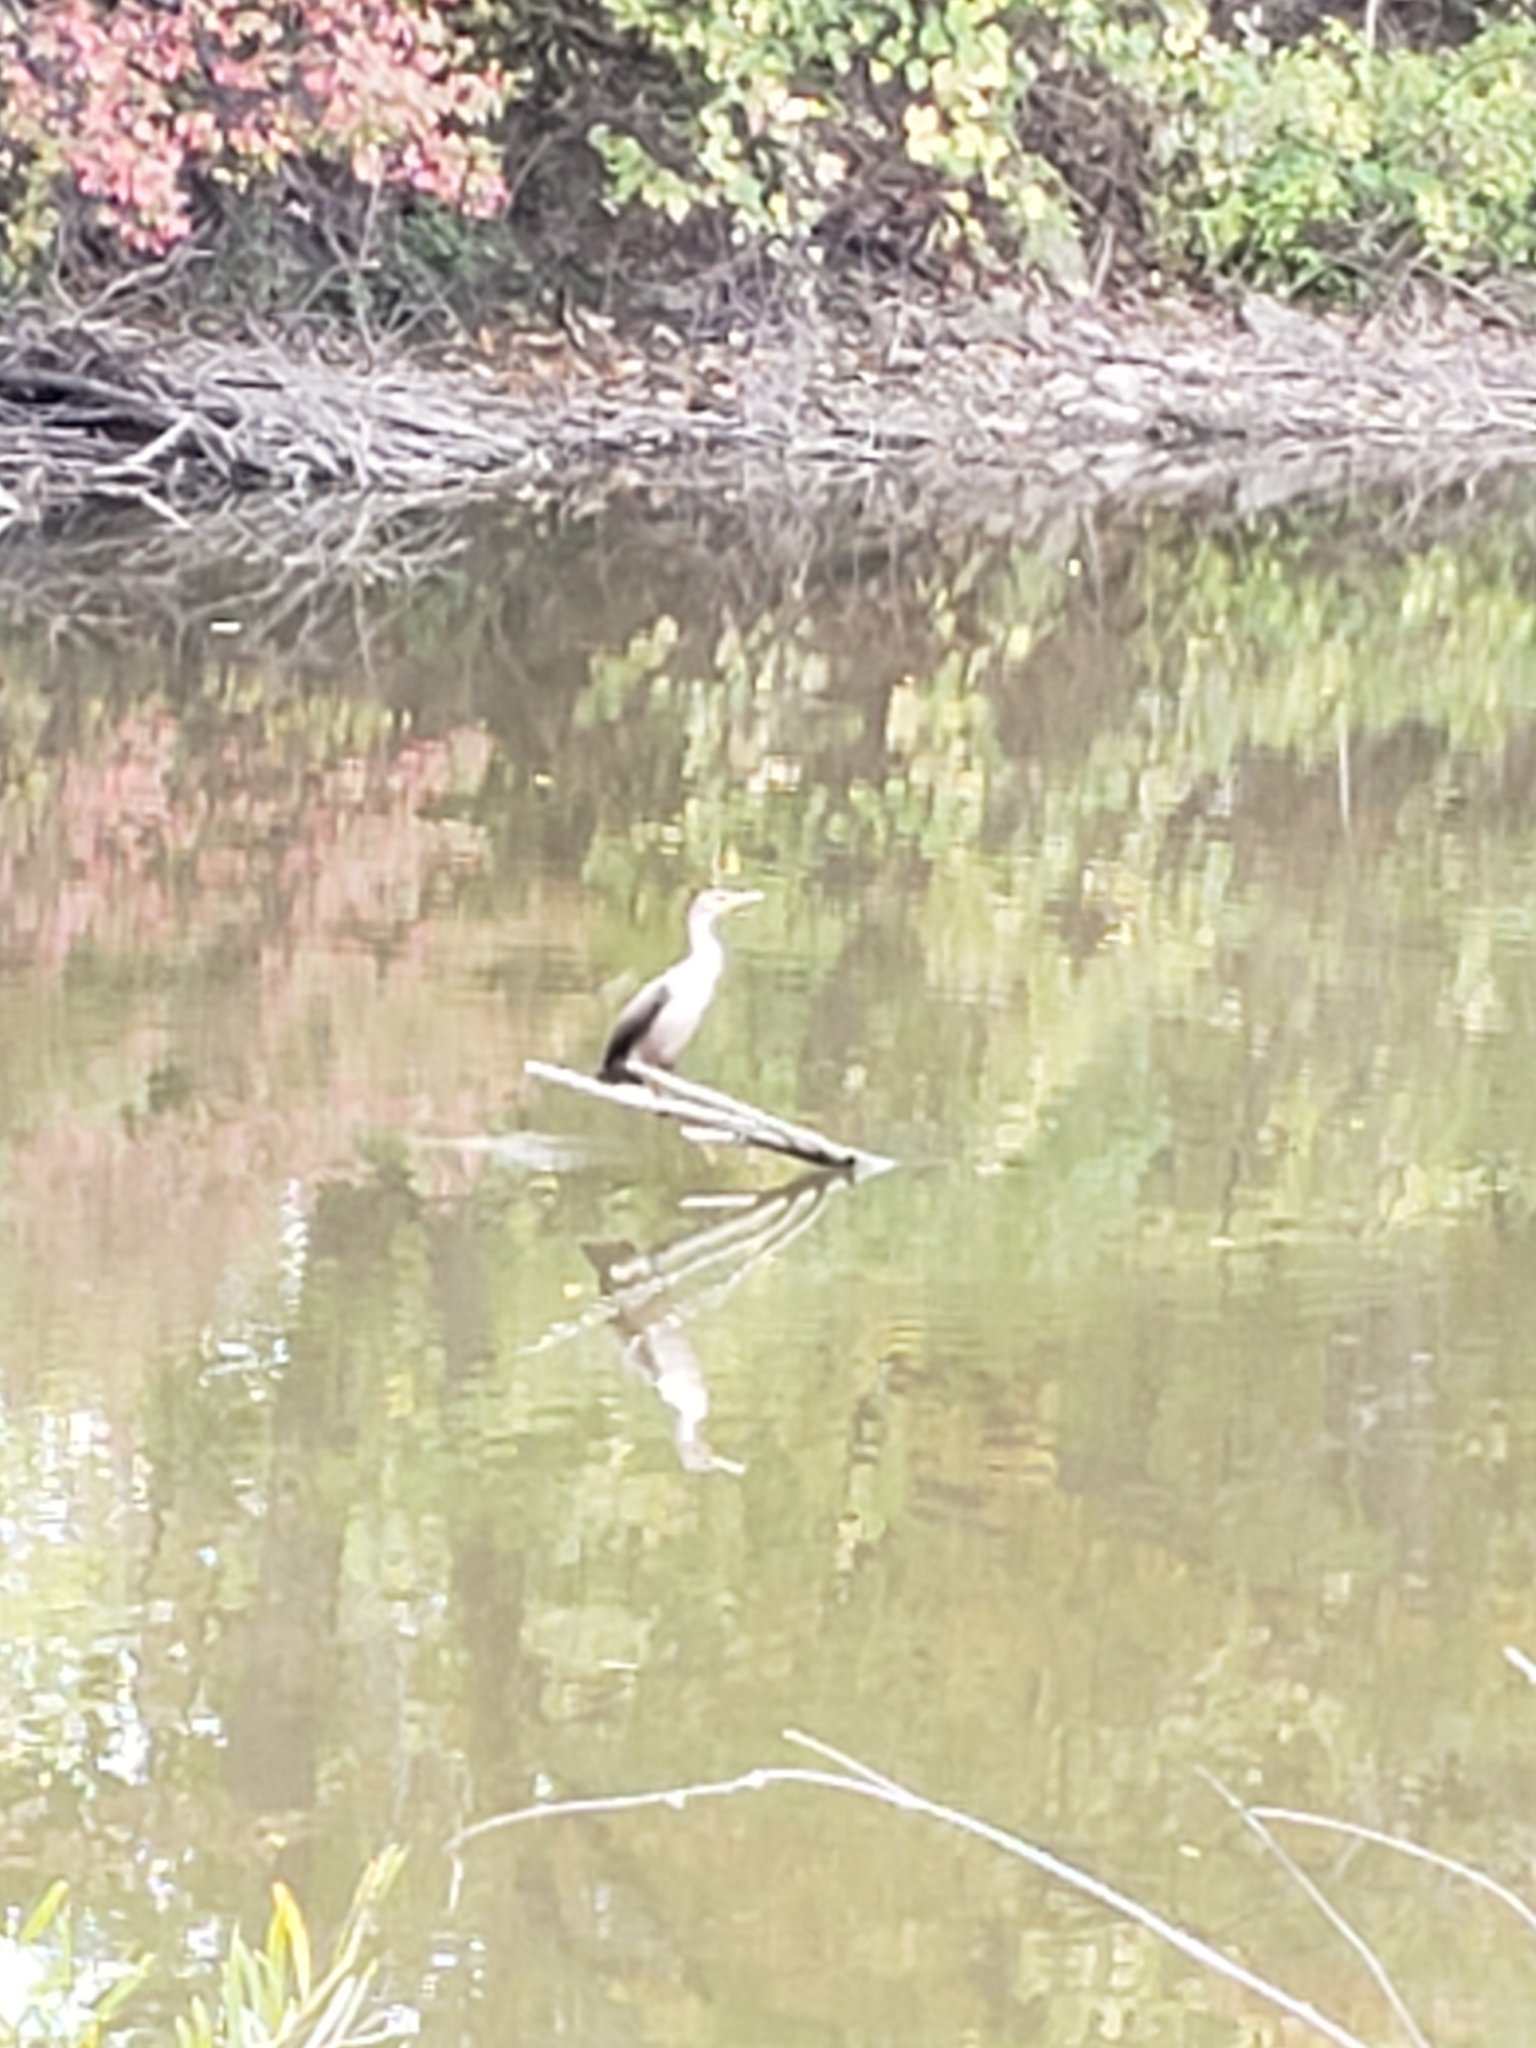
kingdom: Animalia
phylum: Chordata
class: Aves
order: Suliformes
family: Phalacrocoracidae
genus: Phalacrocorax
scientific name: Phalacrocorax auritus
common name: Double-crested cormorant
